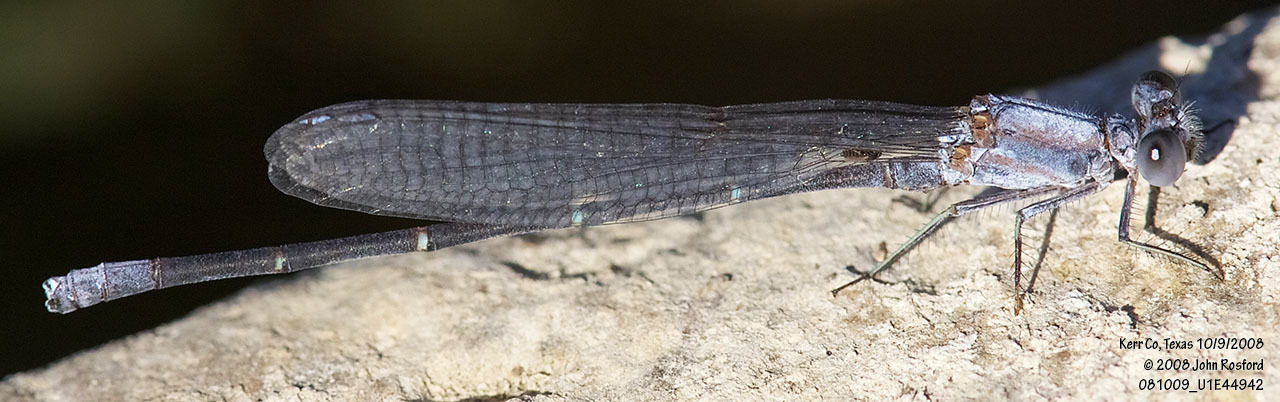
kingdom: Animalia
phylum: Arthropoda
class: Insecta
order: Odonata
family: Coenagrionidae
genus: Argia
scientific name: Argia moesta
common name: Powdered dancer
